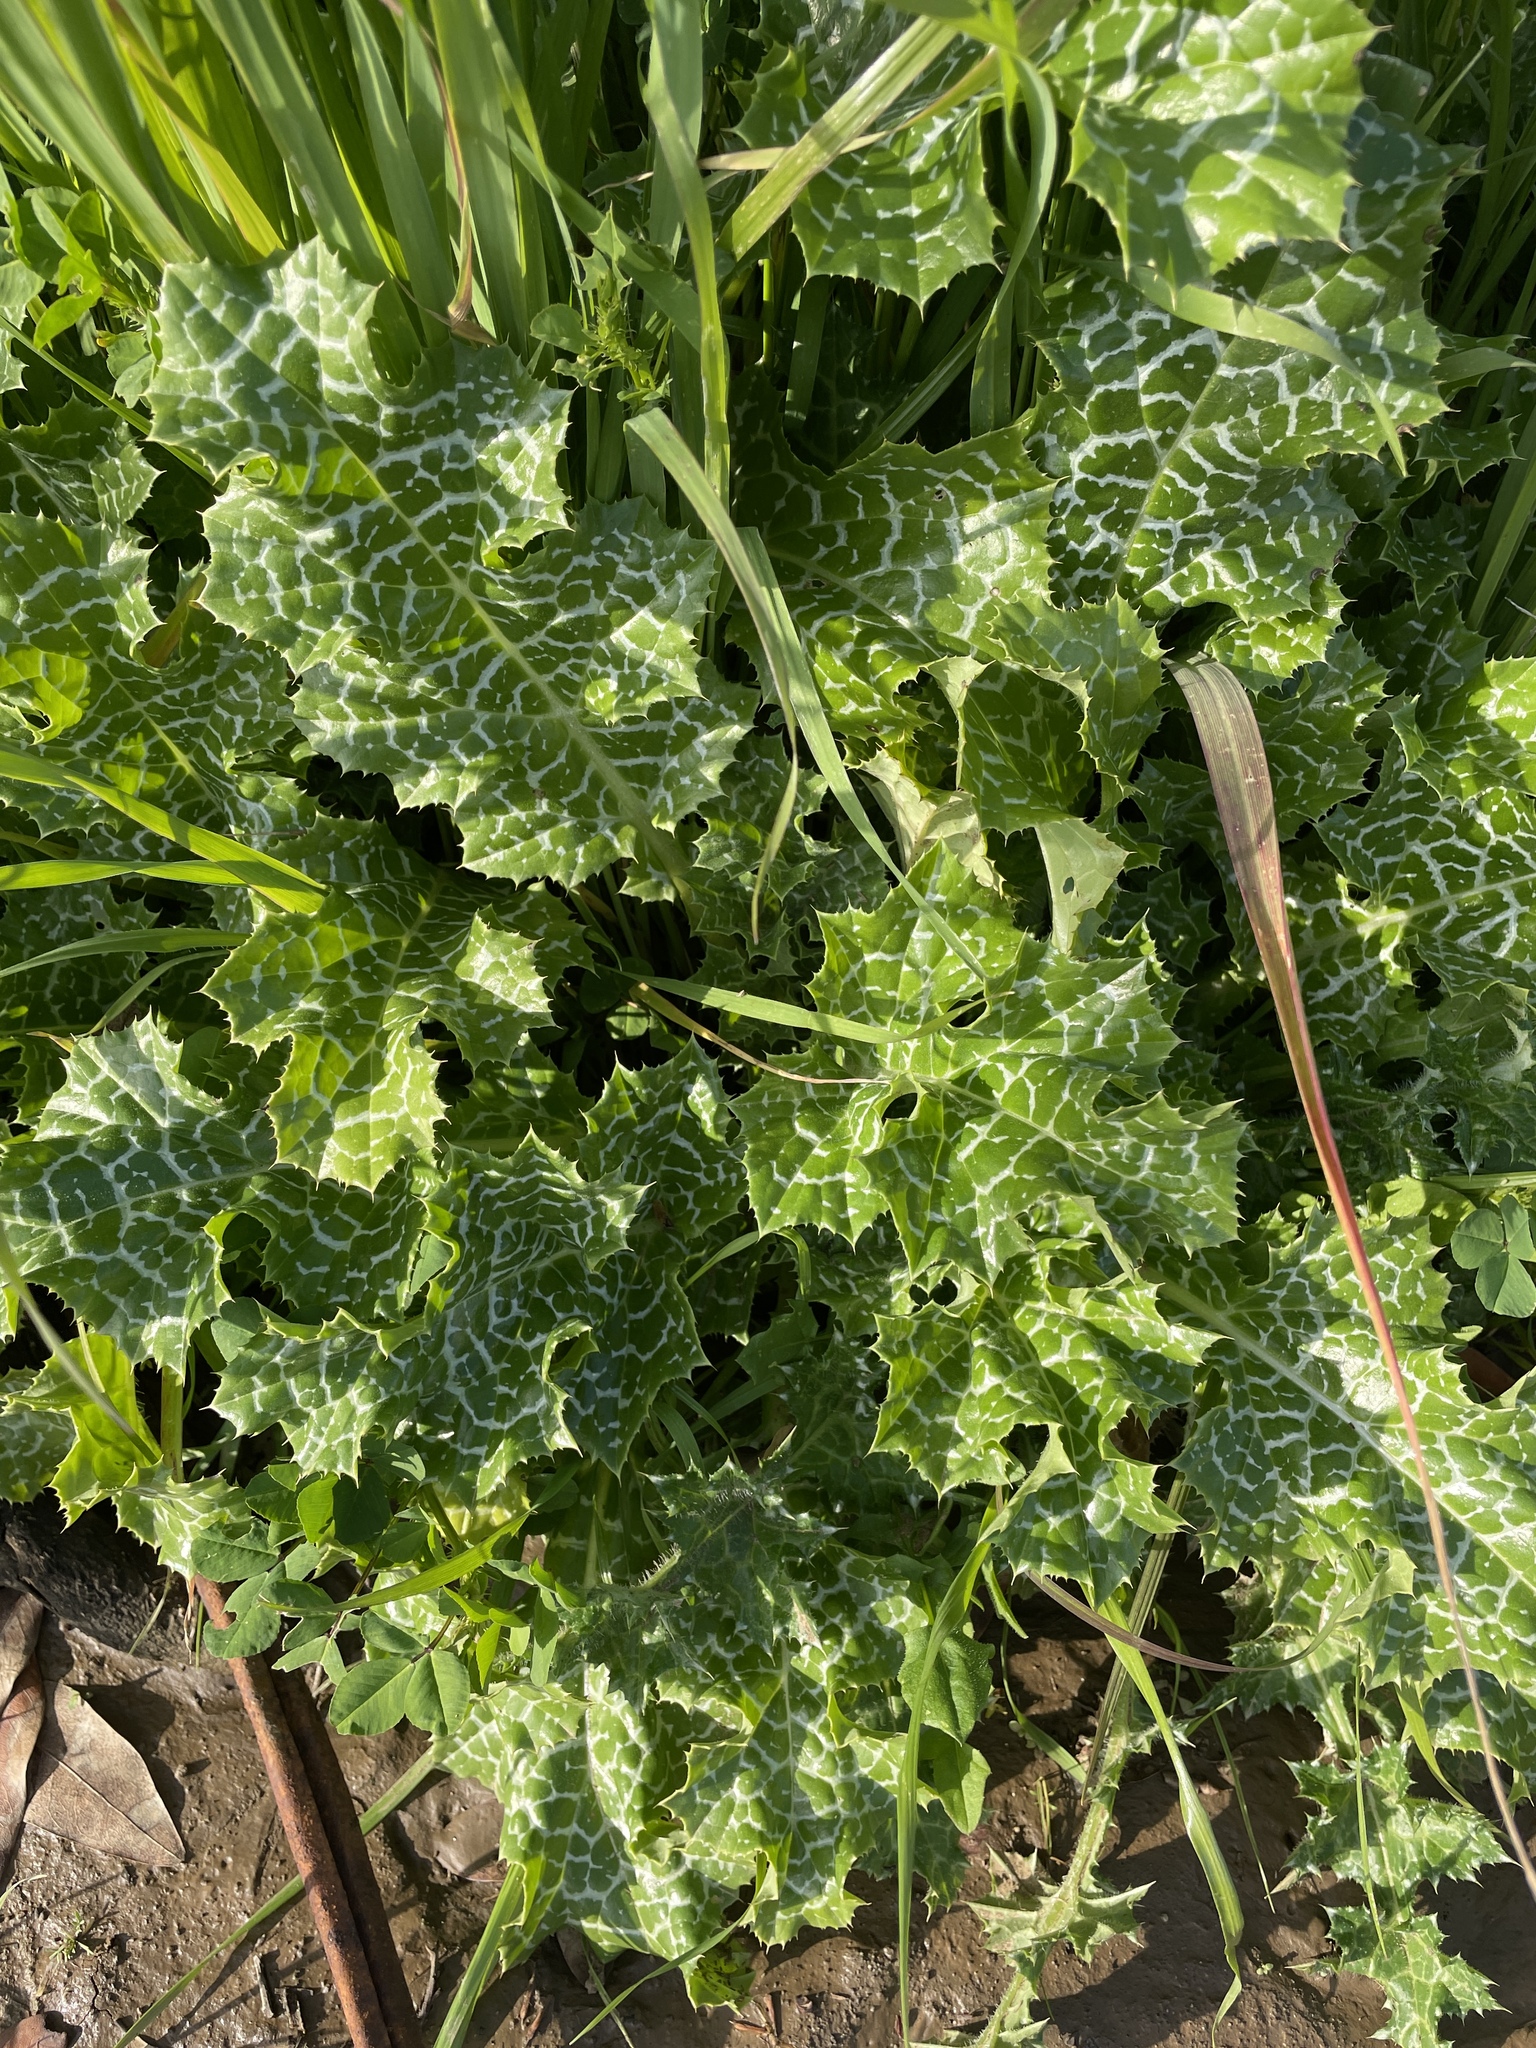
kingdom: Plantae
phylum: Tracheophyta
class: Magnoliopsida
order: Asterales
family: Asteraceae
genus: Silybum
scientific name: Silybum marianum
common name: Milk thistle
